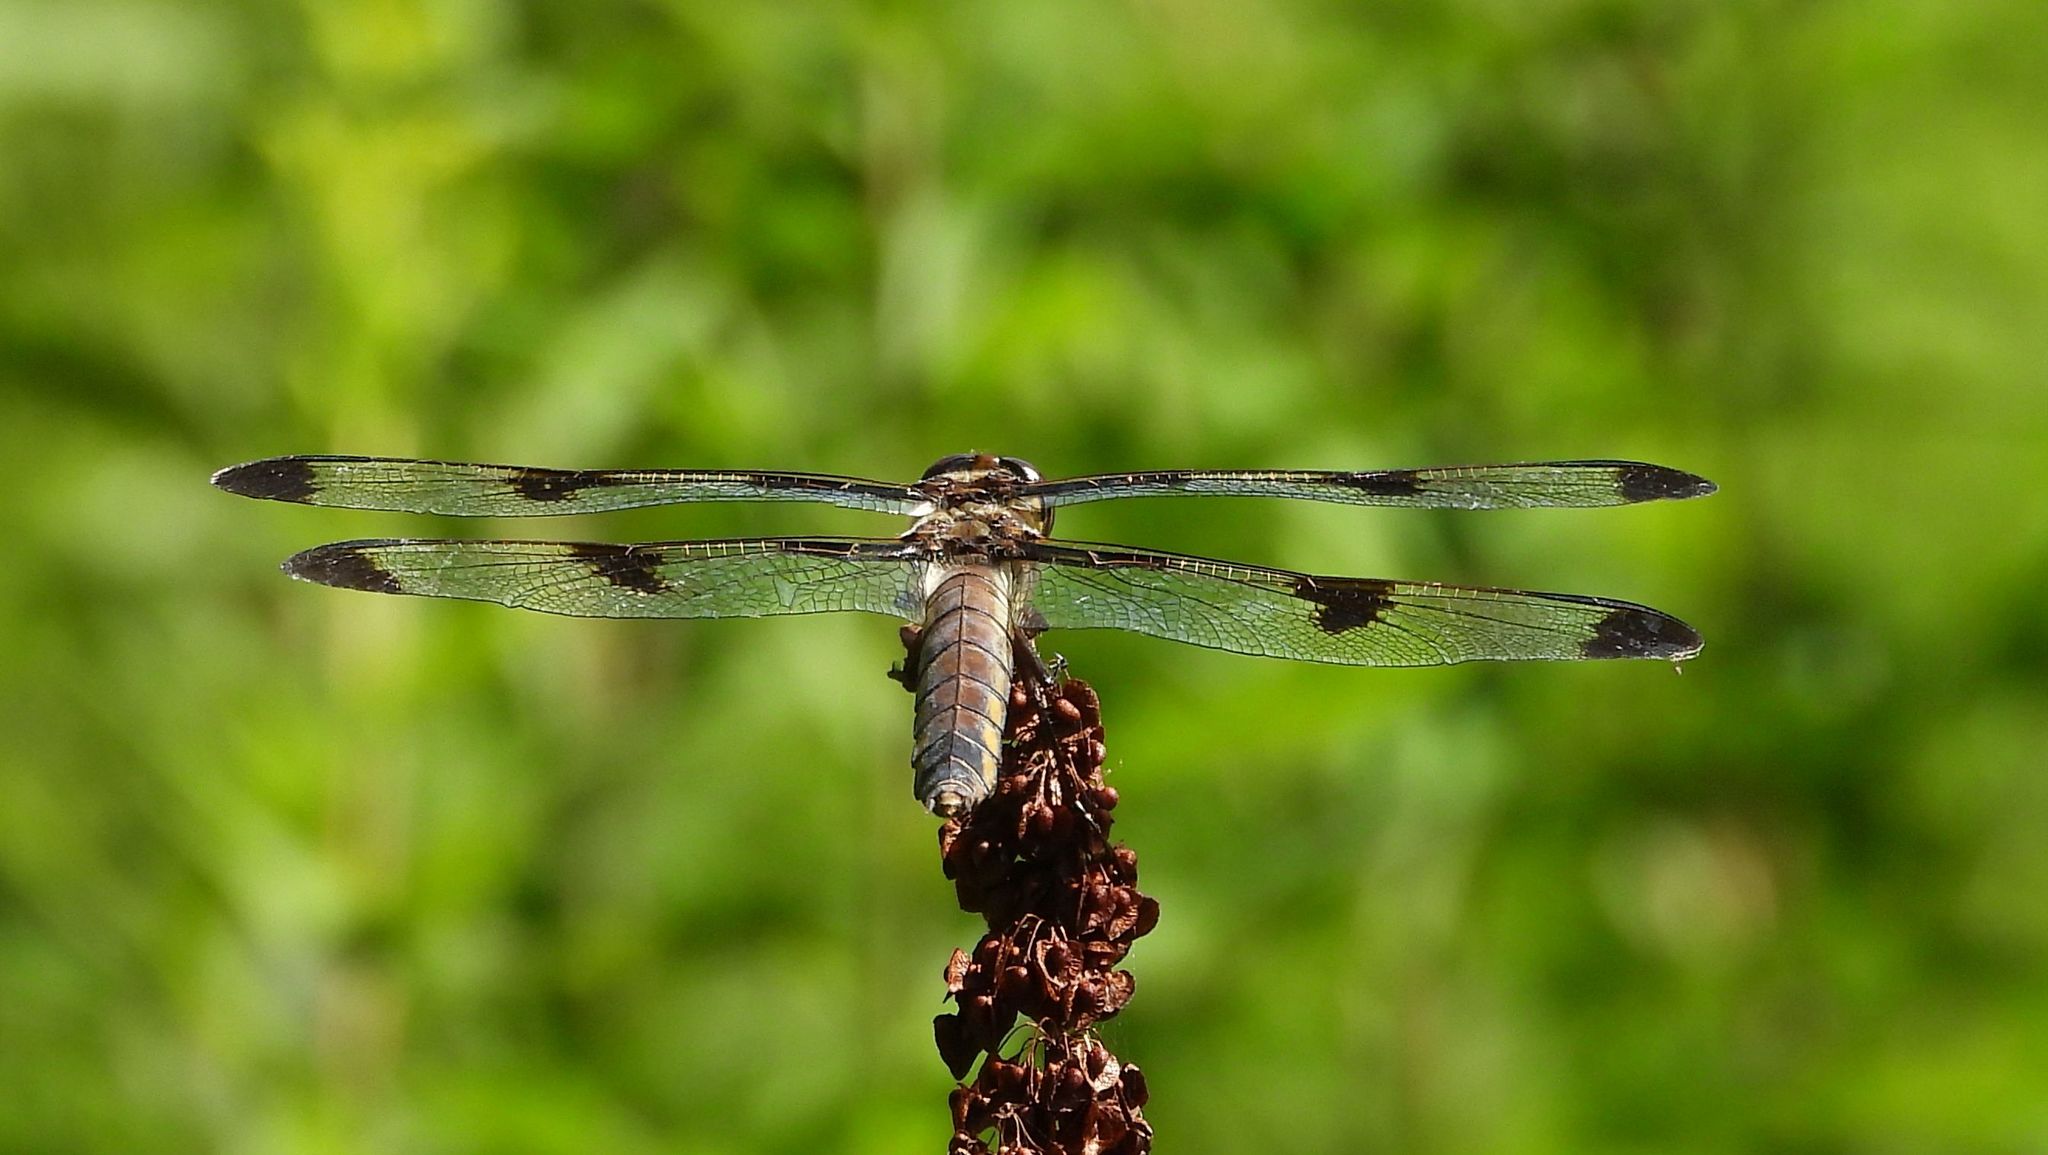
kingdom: Animalia
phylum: Arthropoda
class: Insecta
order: Odonata
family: Libellulidae
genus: Libellula
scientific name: Libellula pulchella
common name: Twelve-spotted skimmer
